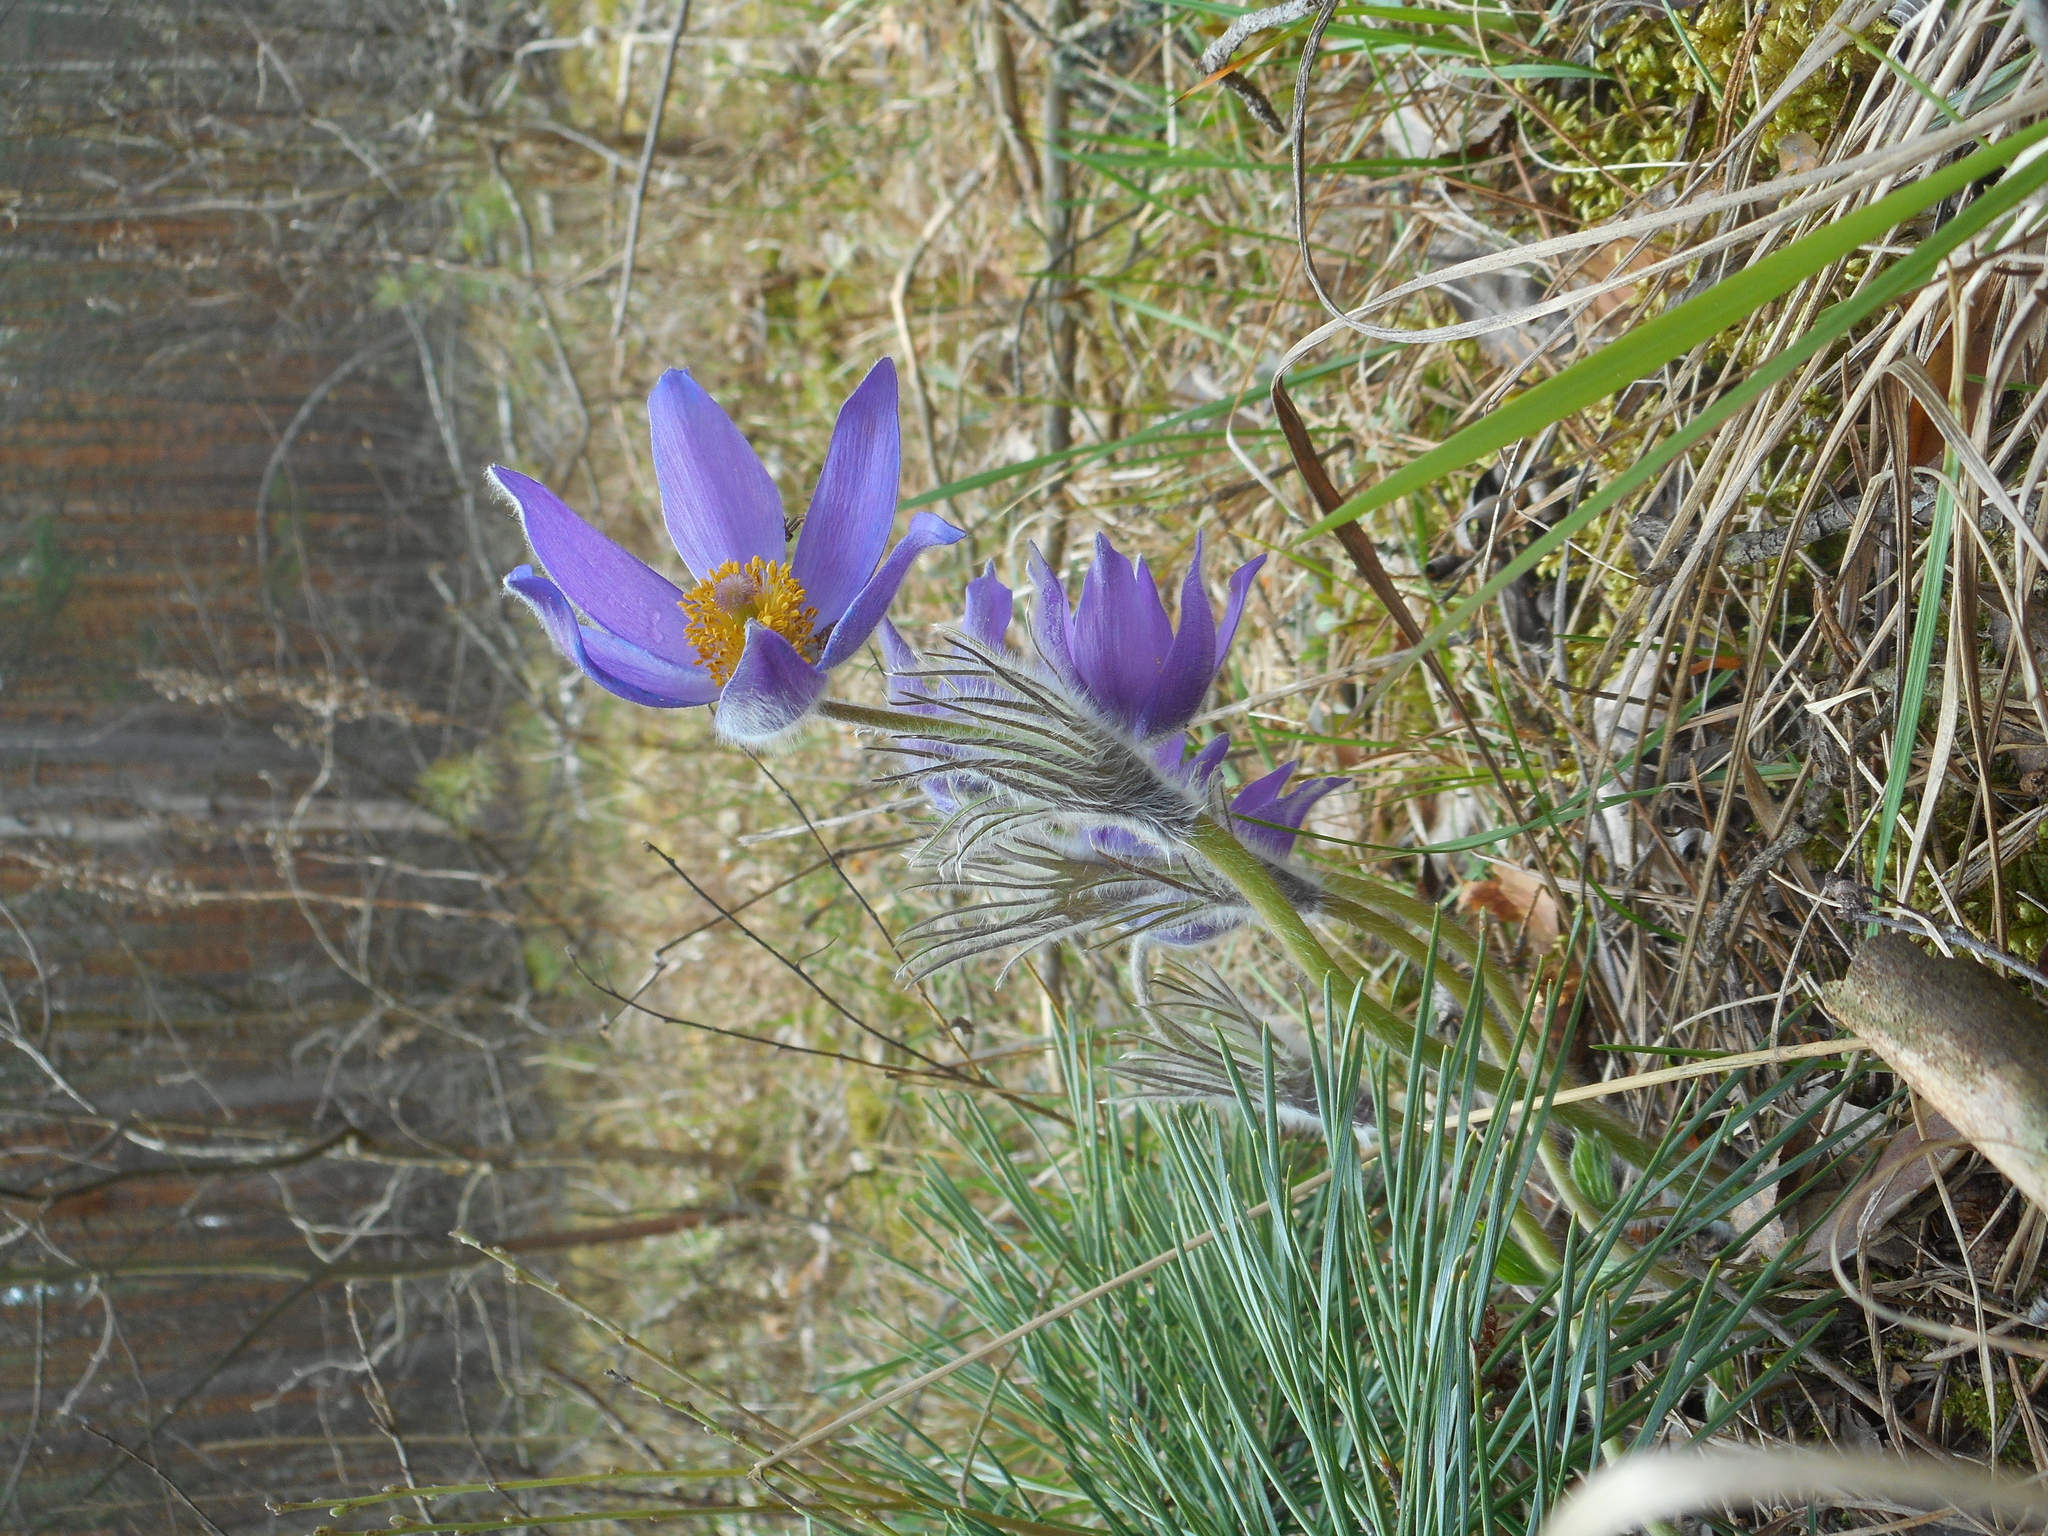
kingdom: Plantae
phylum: Tracheophyta
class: Magnoliopsida
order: Ranunculales
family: Ranunculaceae
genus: Pulsatilla
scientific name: Pulsatilla patens
